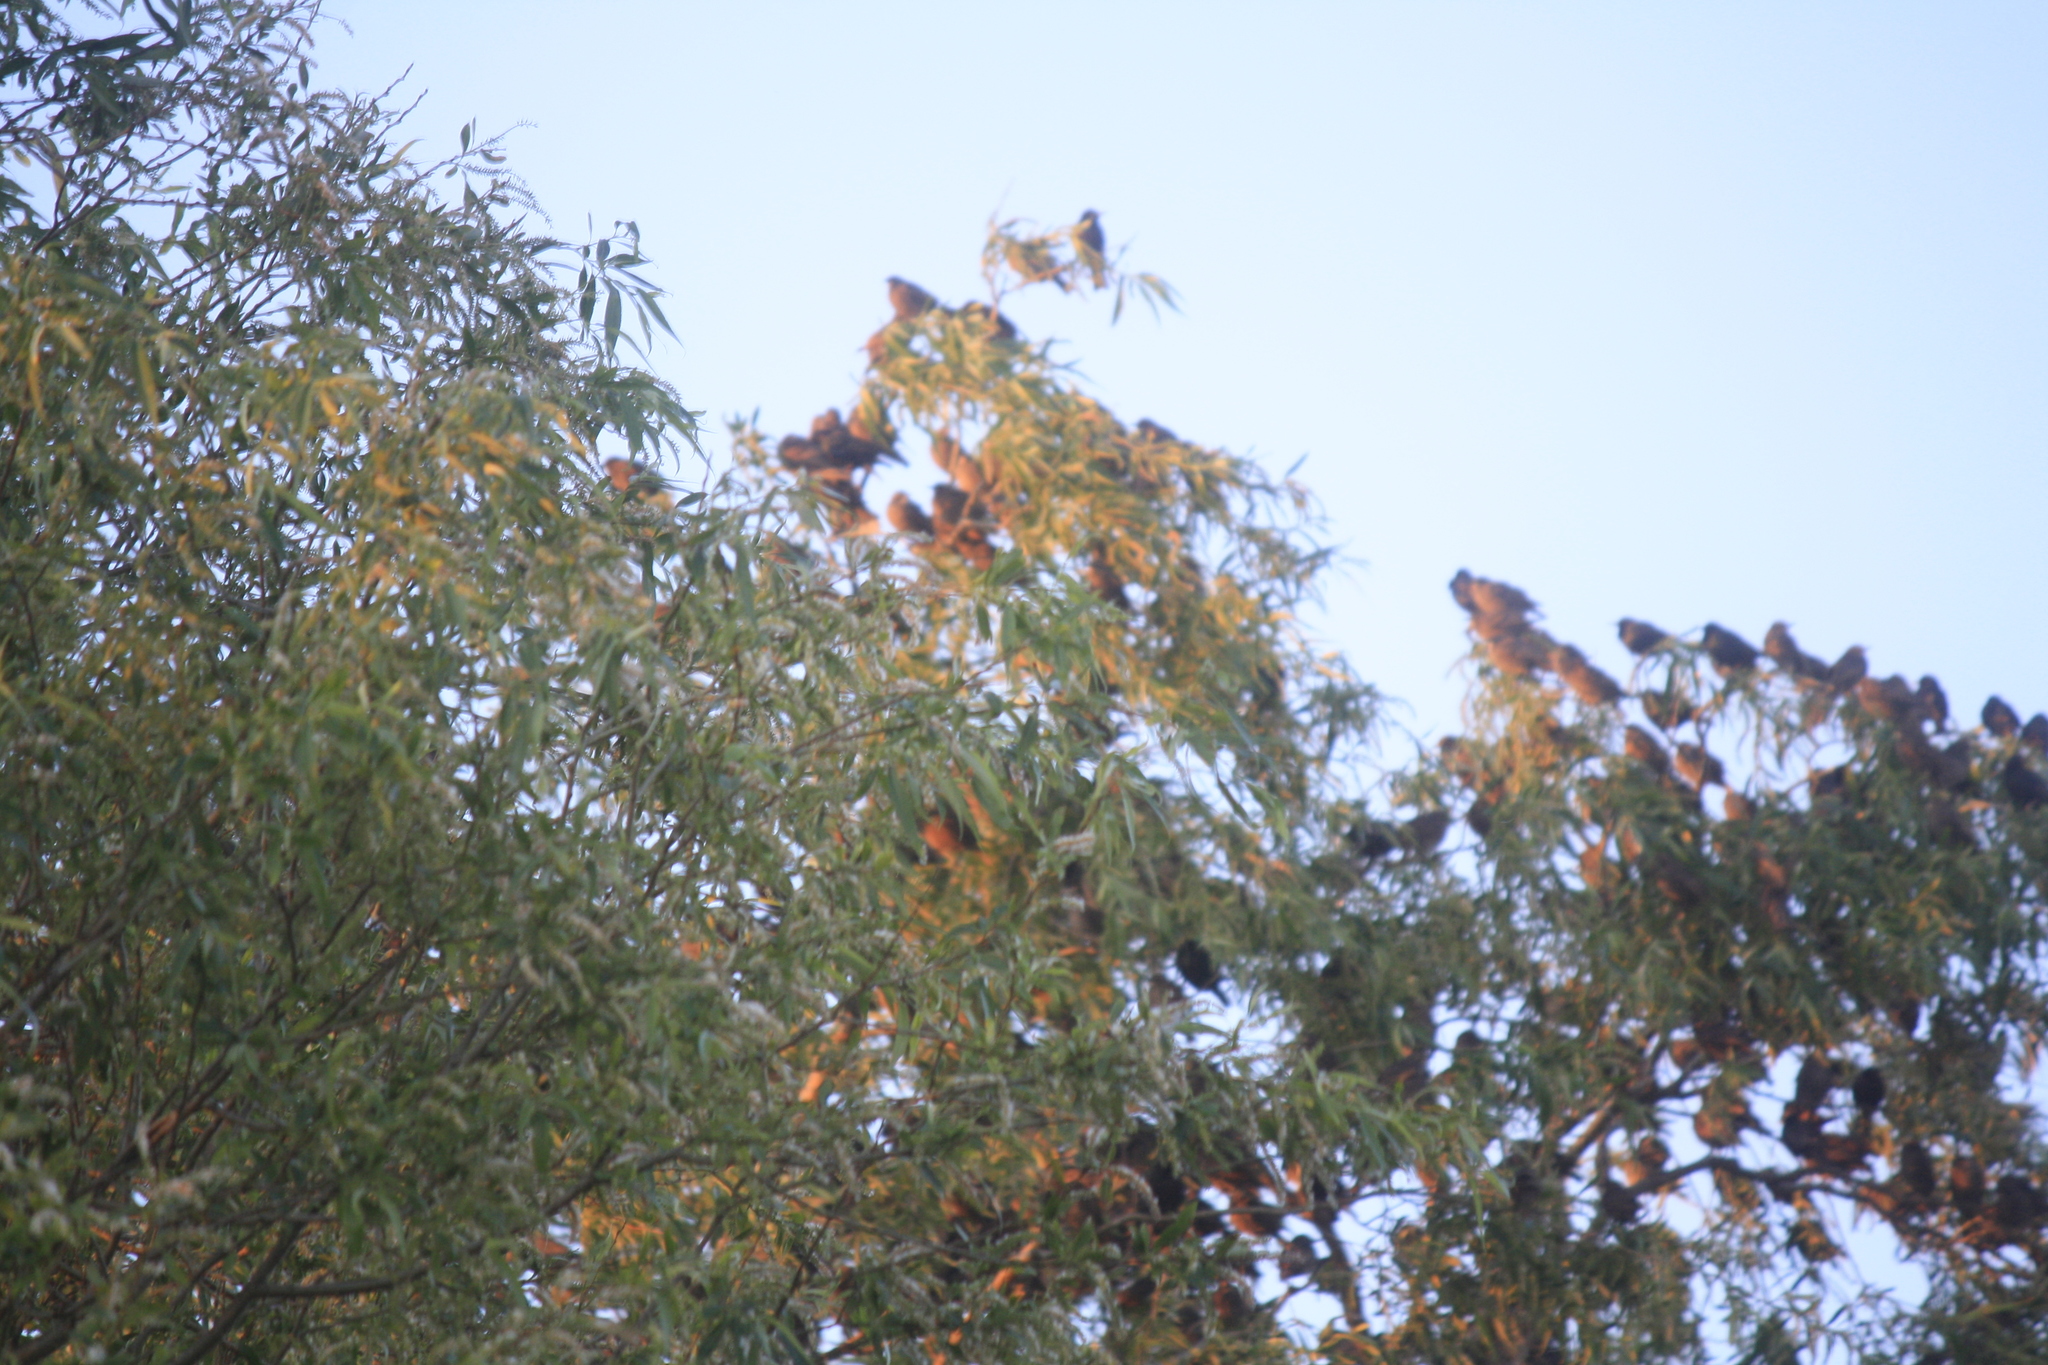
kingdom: Animalia
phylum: Chordata
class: Aves
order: Passeriformes
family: Sturnidae
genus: Sturnus
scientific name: Sturnus vulgaris
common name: Common starling
